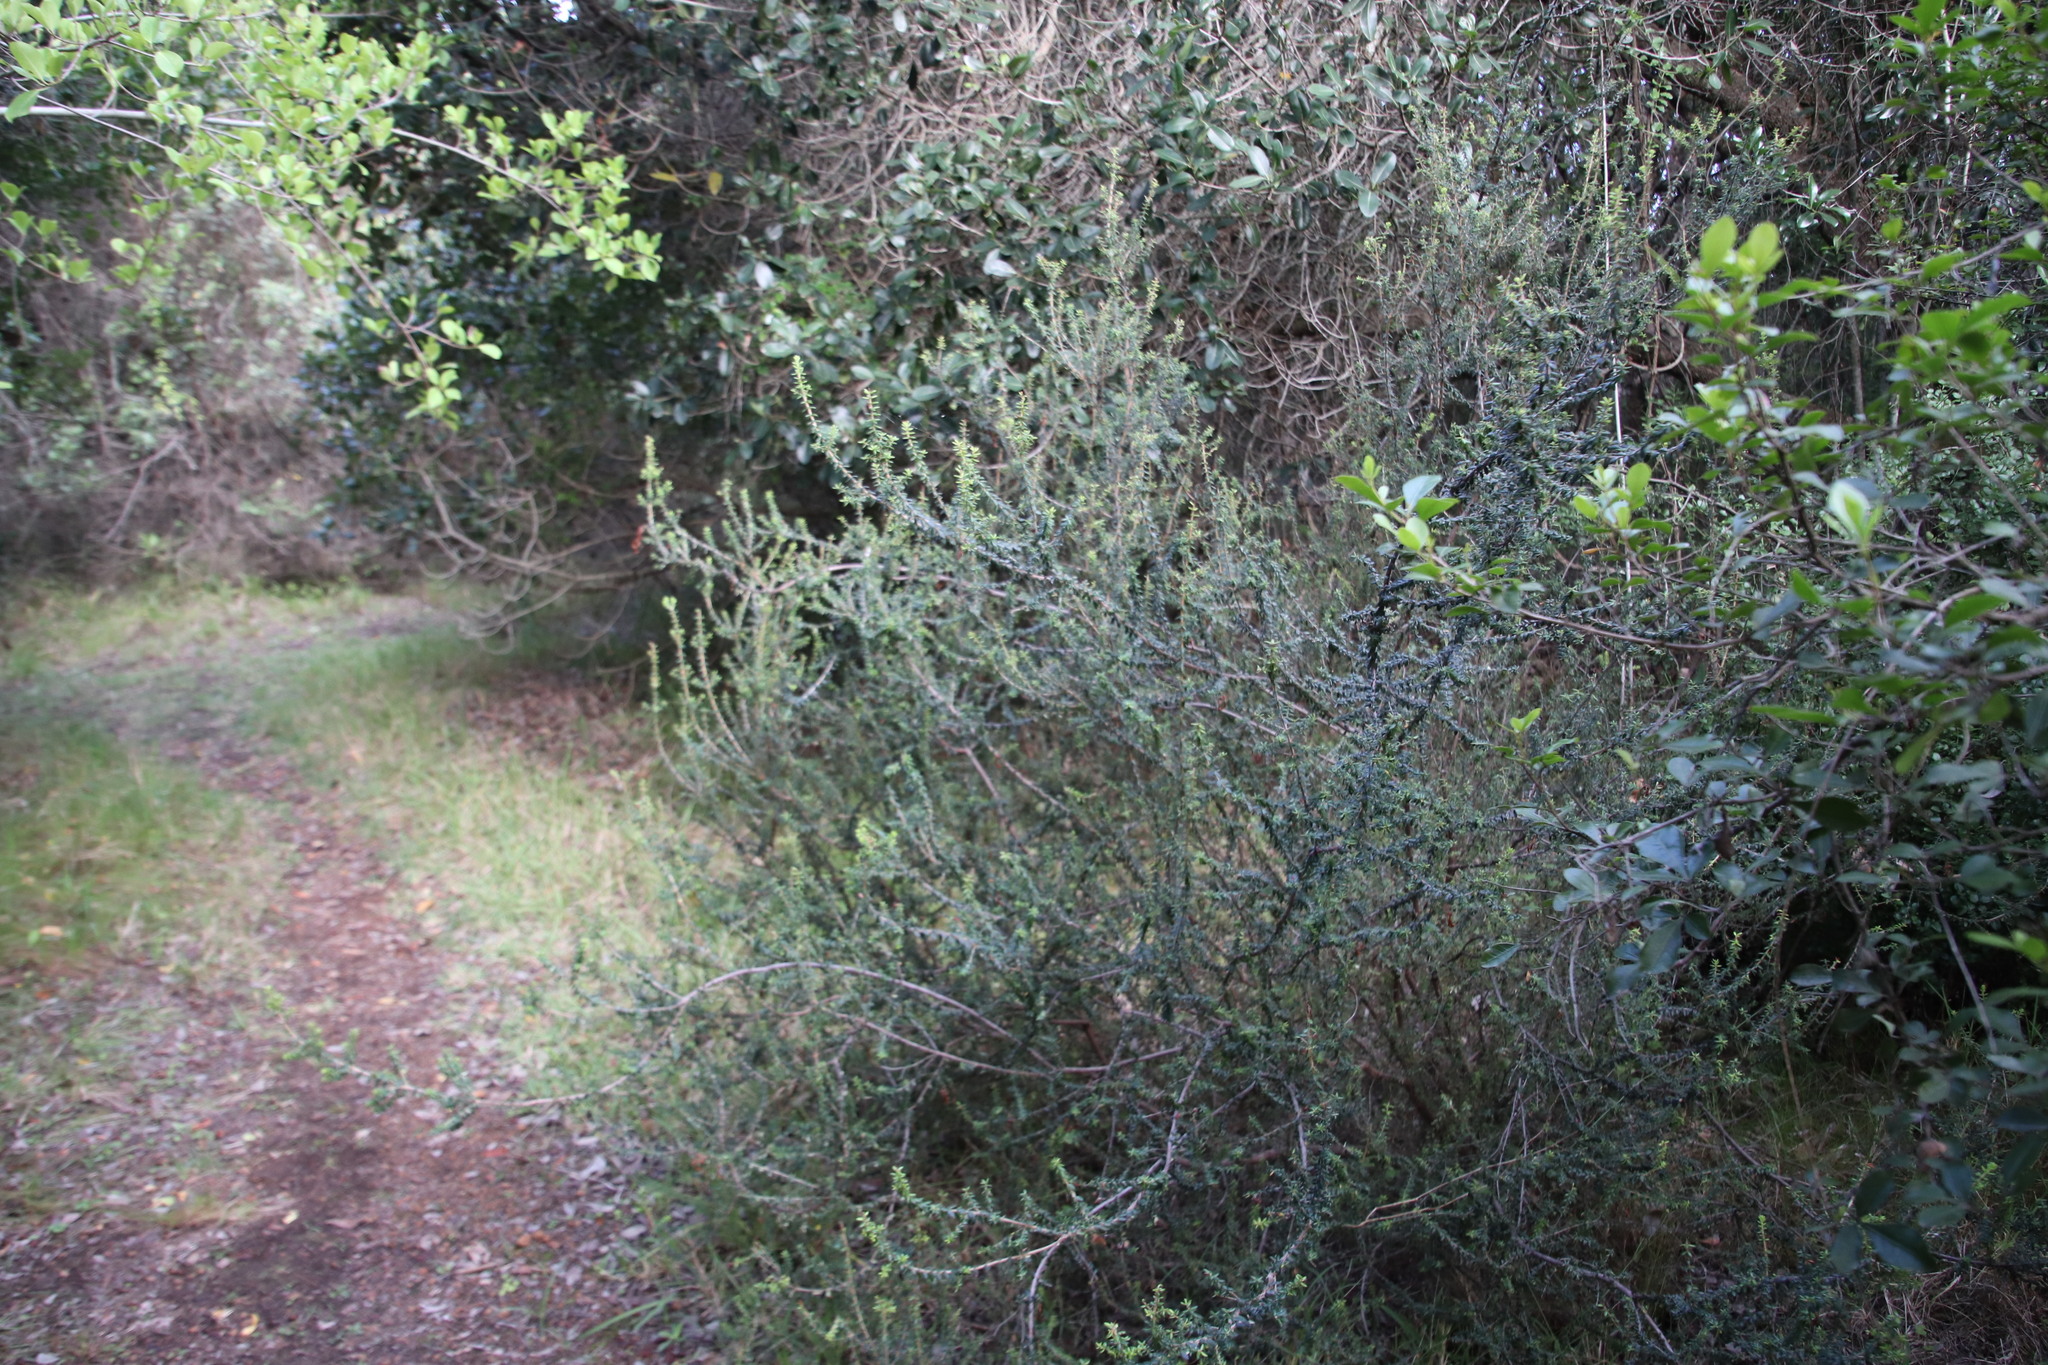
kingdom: Plantae
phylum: Tracheophyta
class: Magnoliopsida
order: Ericales
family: Ericaceae
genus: Erica
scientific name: Erica discolor
